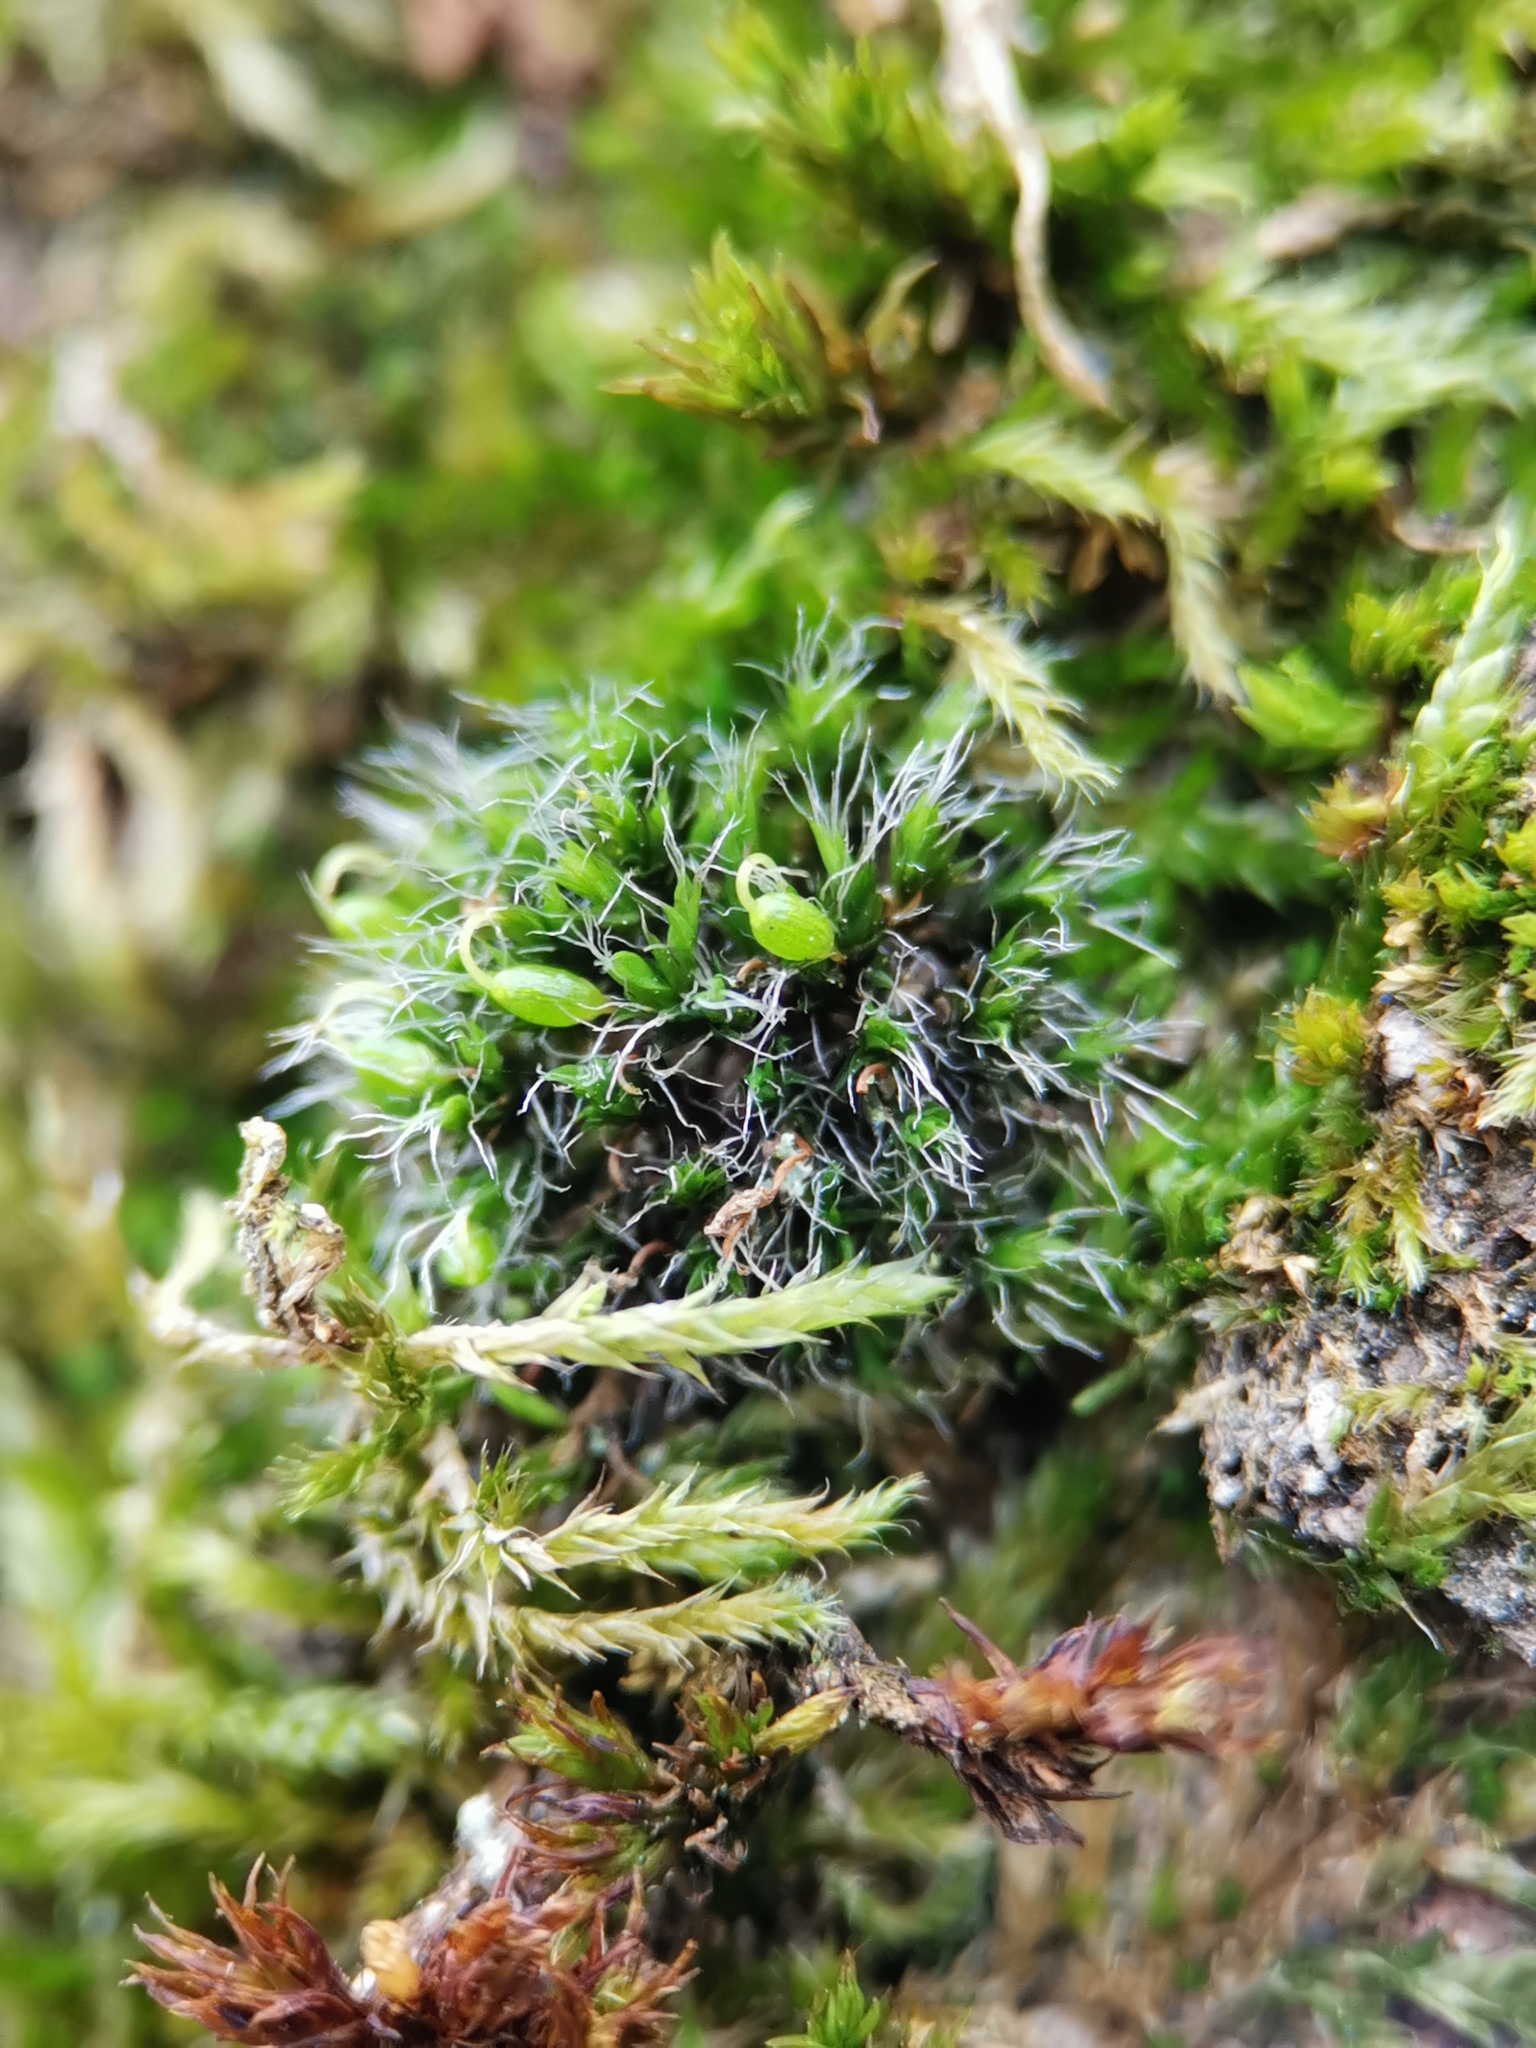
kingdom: Plantae
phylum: Bryophyta
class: Bryopsida
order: Grimmiales
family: Grimmiaceae
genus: Grimmia
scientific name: Grimmia pulvinata
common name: Grey-cushioned grimmia
